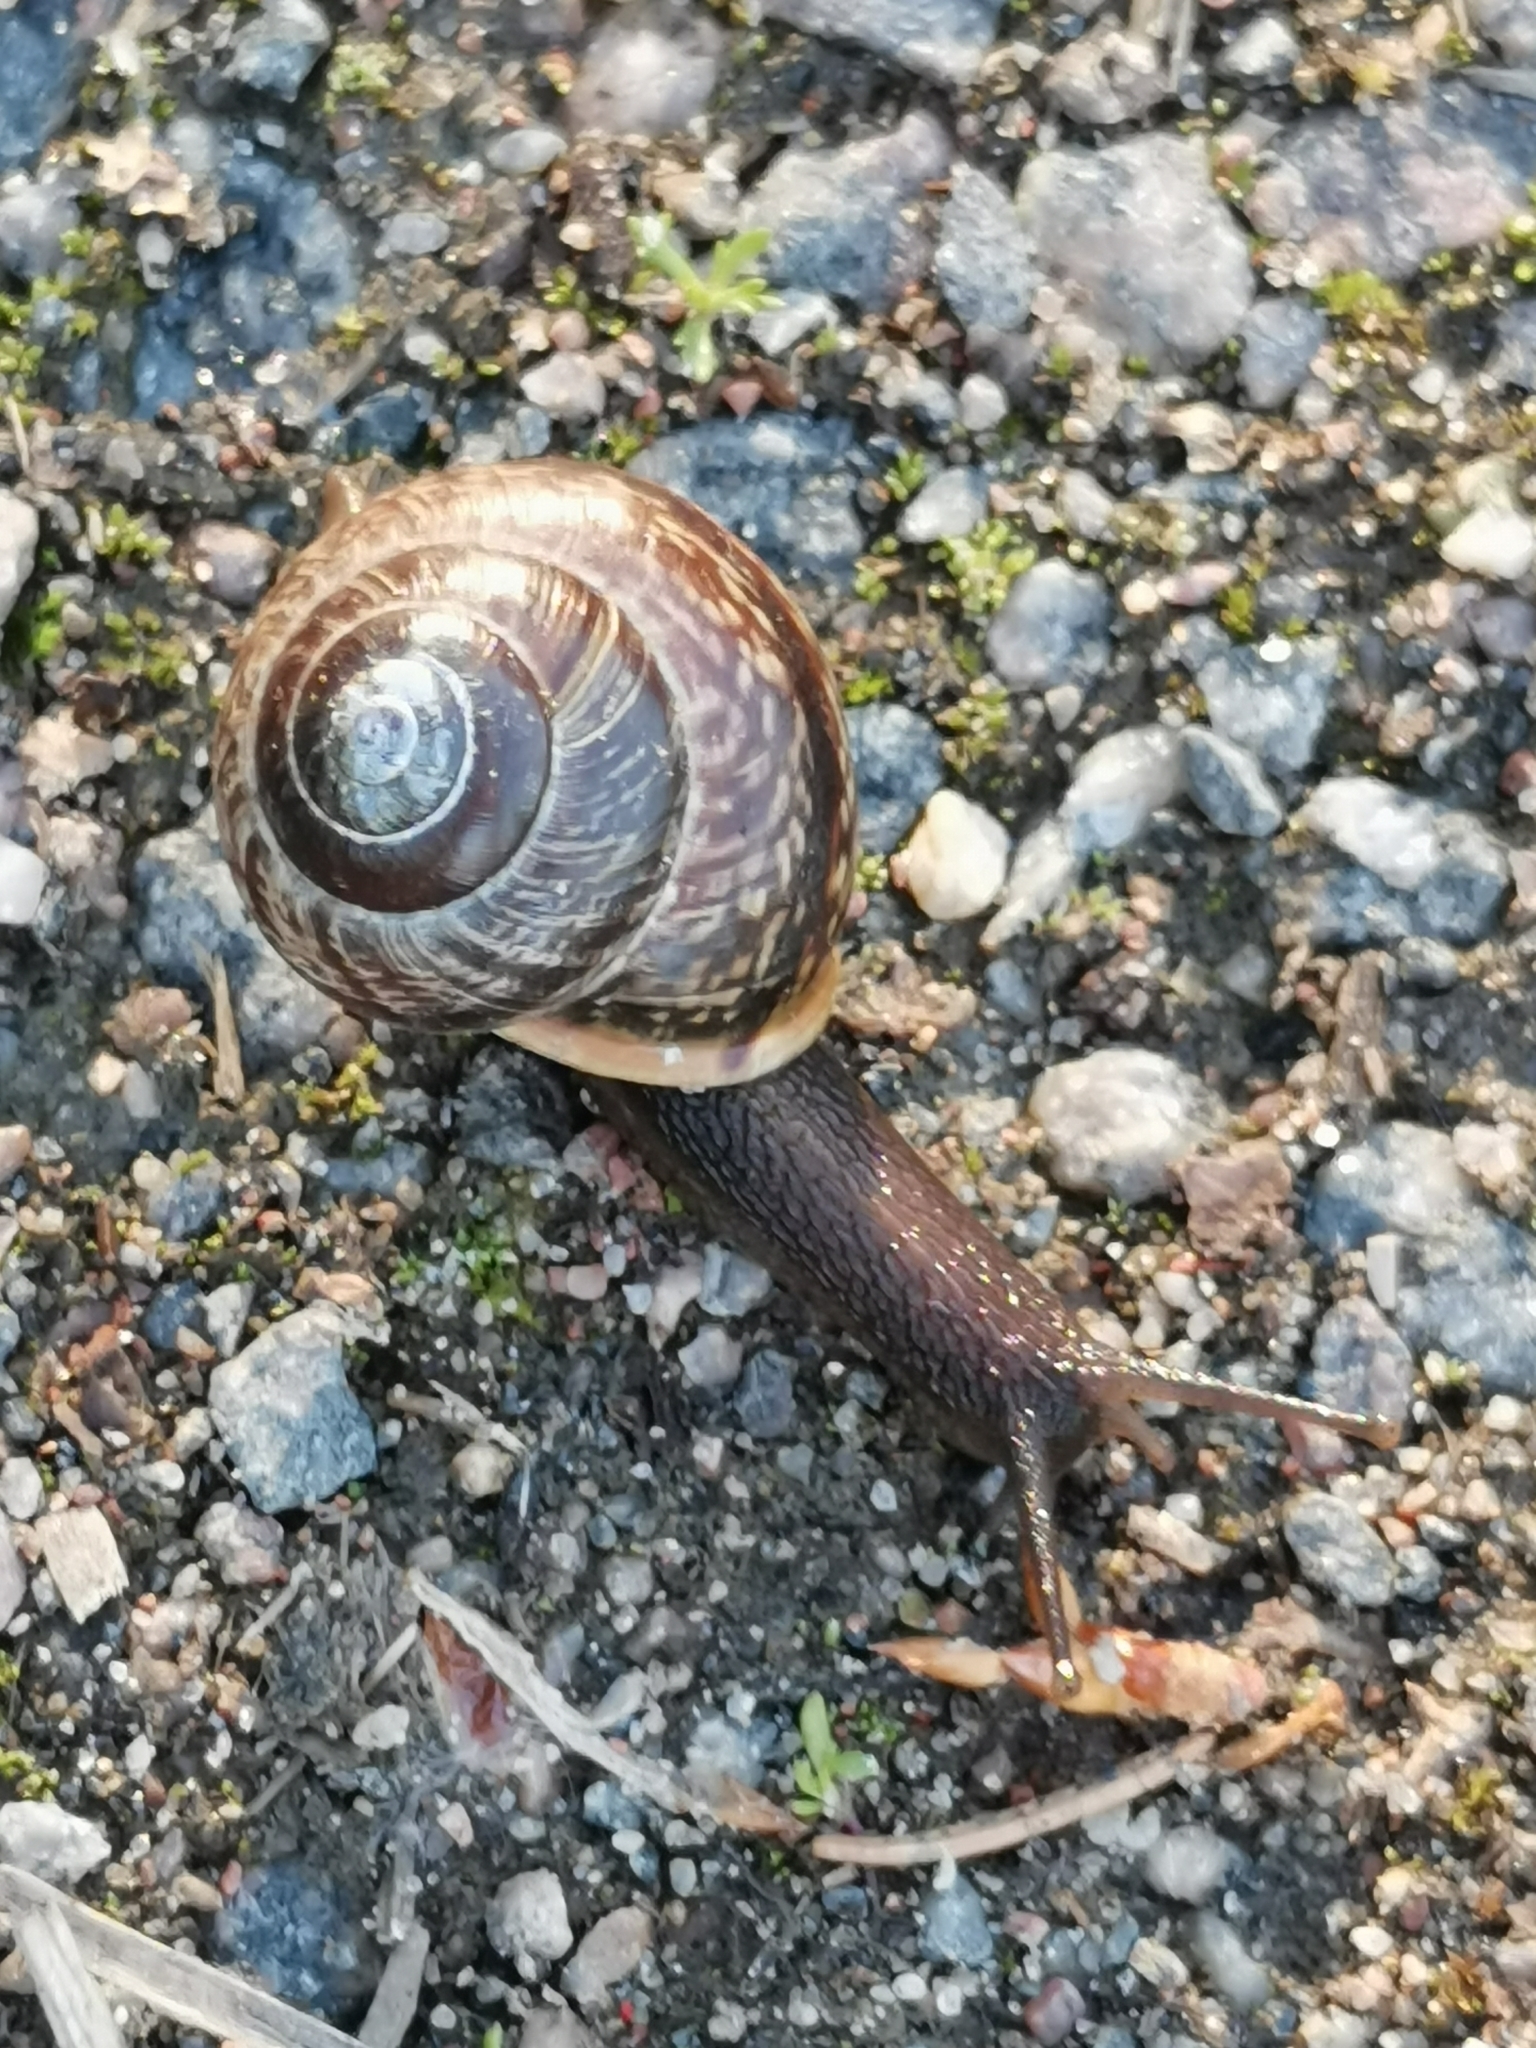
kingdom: Animalia
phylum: Mollusca
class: Gastropoda
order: Stylommatophora
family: Helicidae
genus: Arianta
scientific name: Arianta arbustorum
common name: Copse snail
